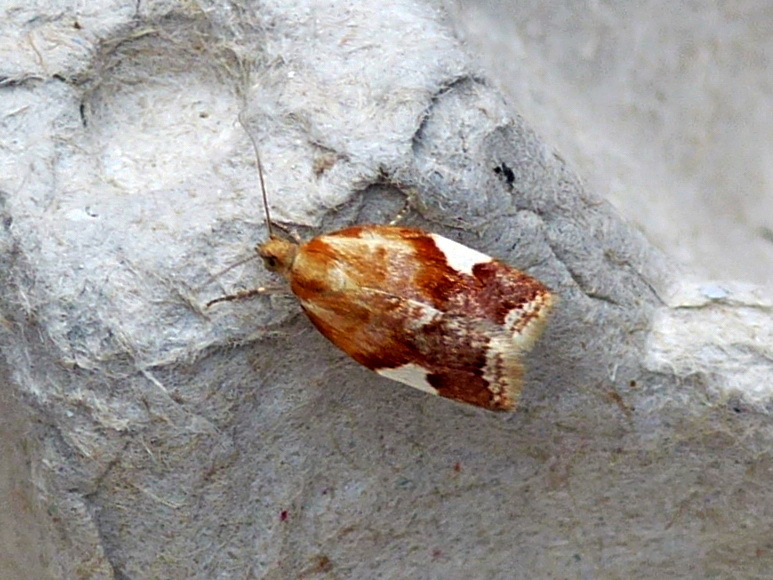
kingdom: Animalia
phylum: Arthropoda
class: Insecta
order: Lepidoptera
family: Tortricidae
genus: Clepsis
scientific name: Clepsis persicana
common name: White triangle tortrix
